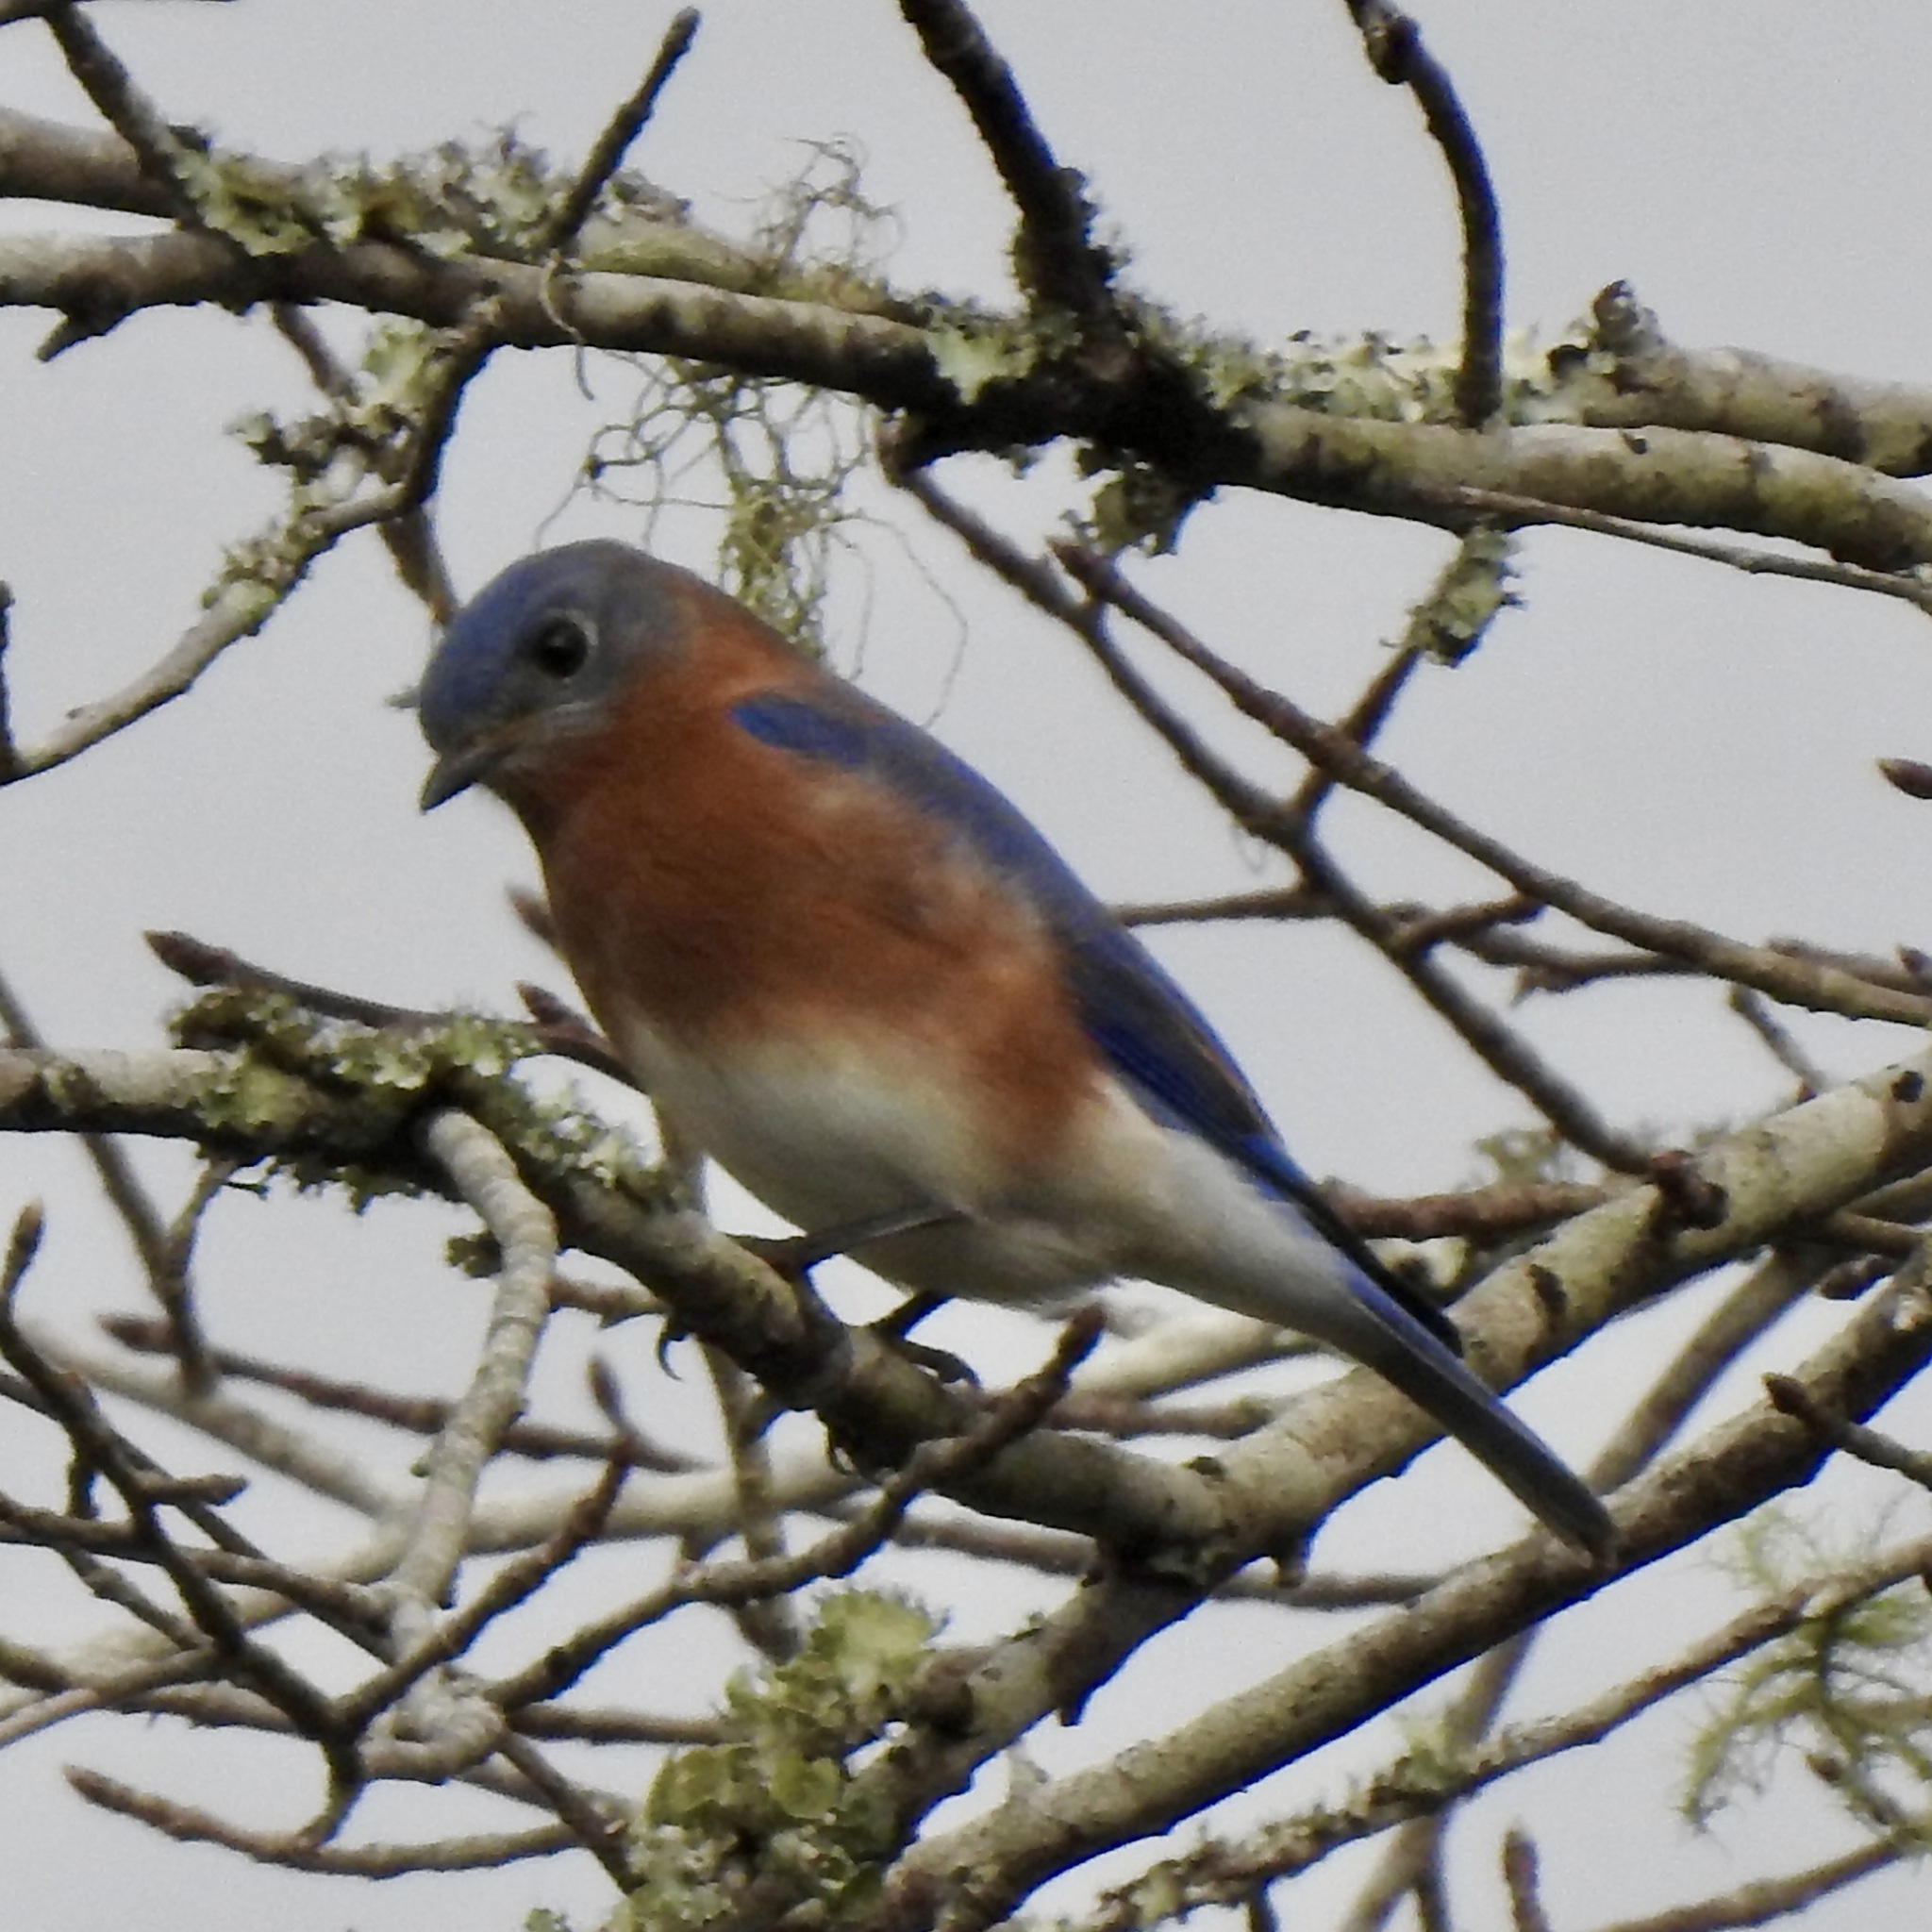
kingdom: Animalia
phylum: Chordata
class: Aves
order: Passeriformes
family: Turdidae
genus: Sialia
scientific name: Sialia sialis
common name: Eastern bluebird
